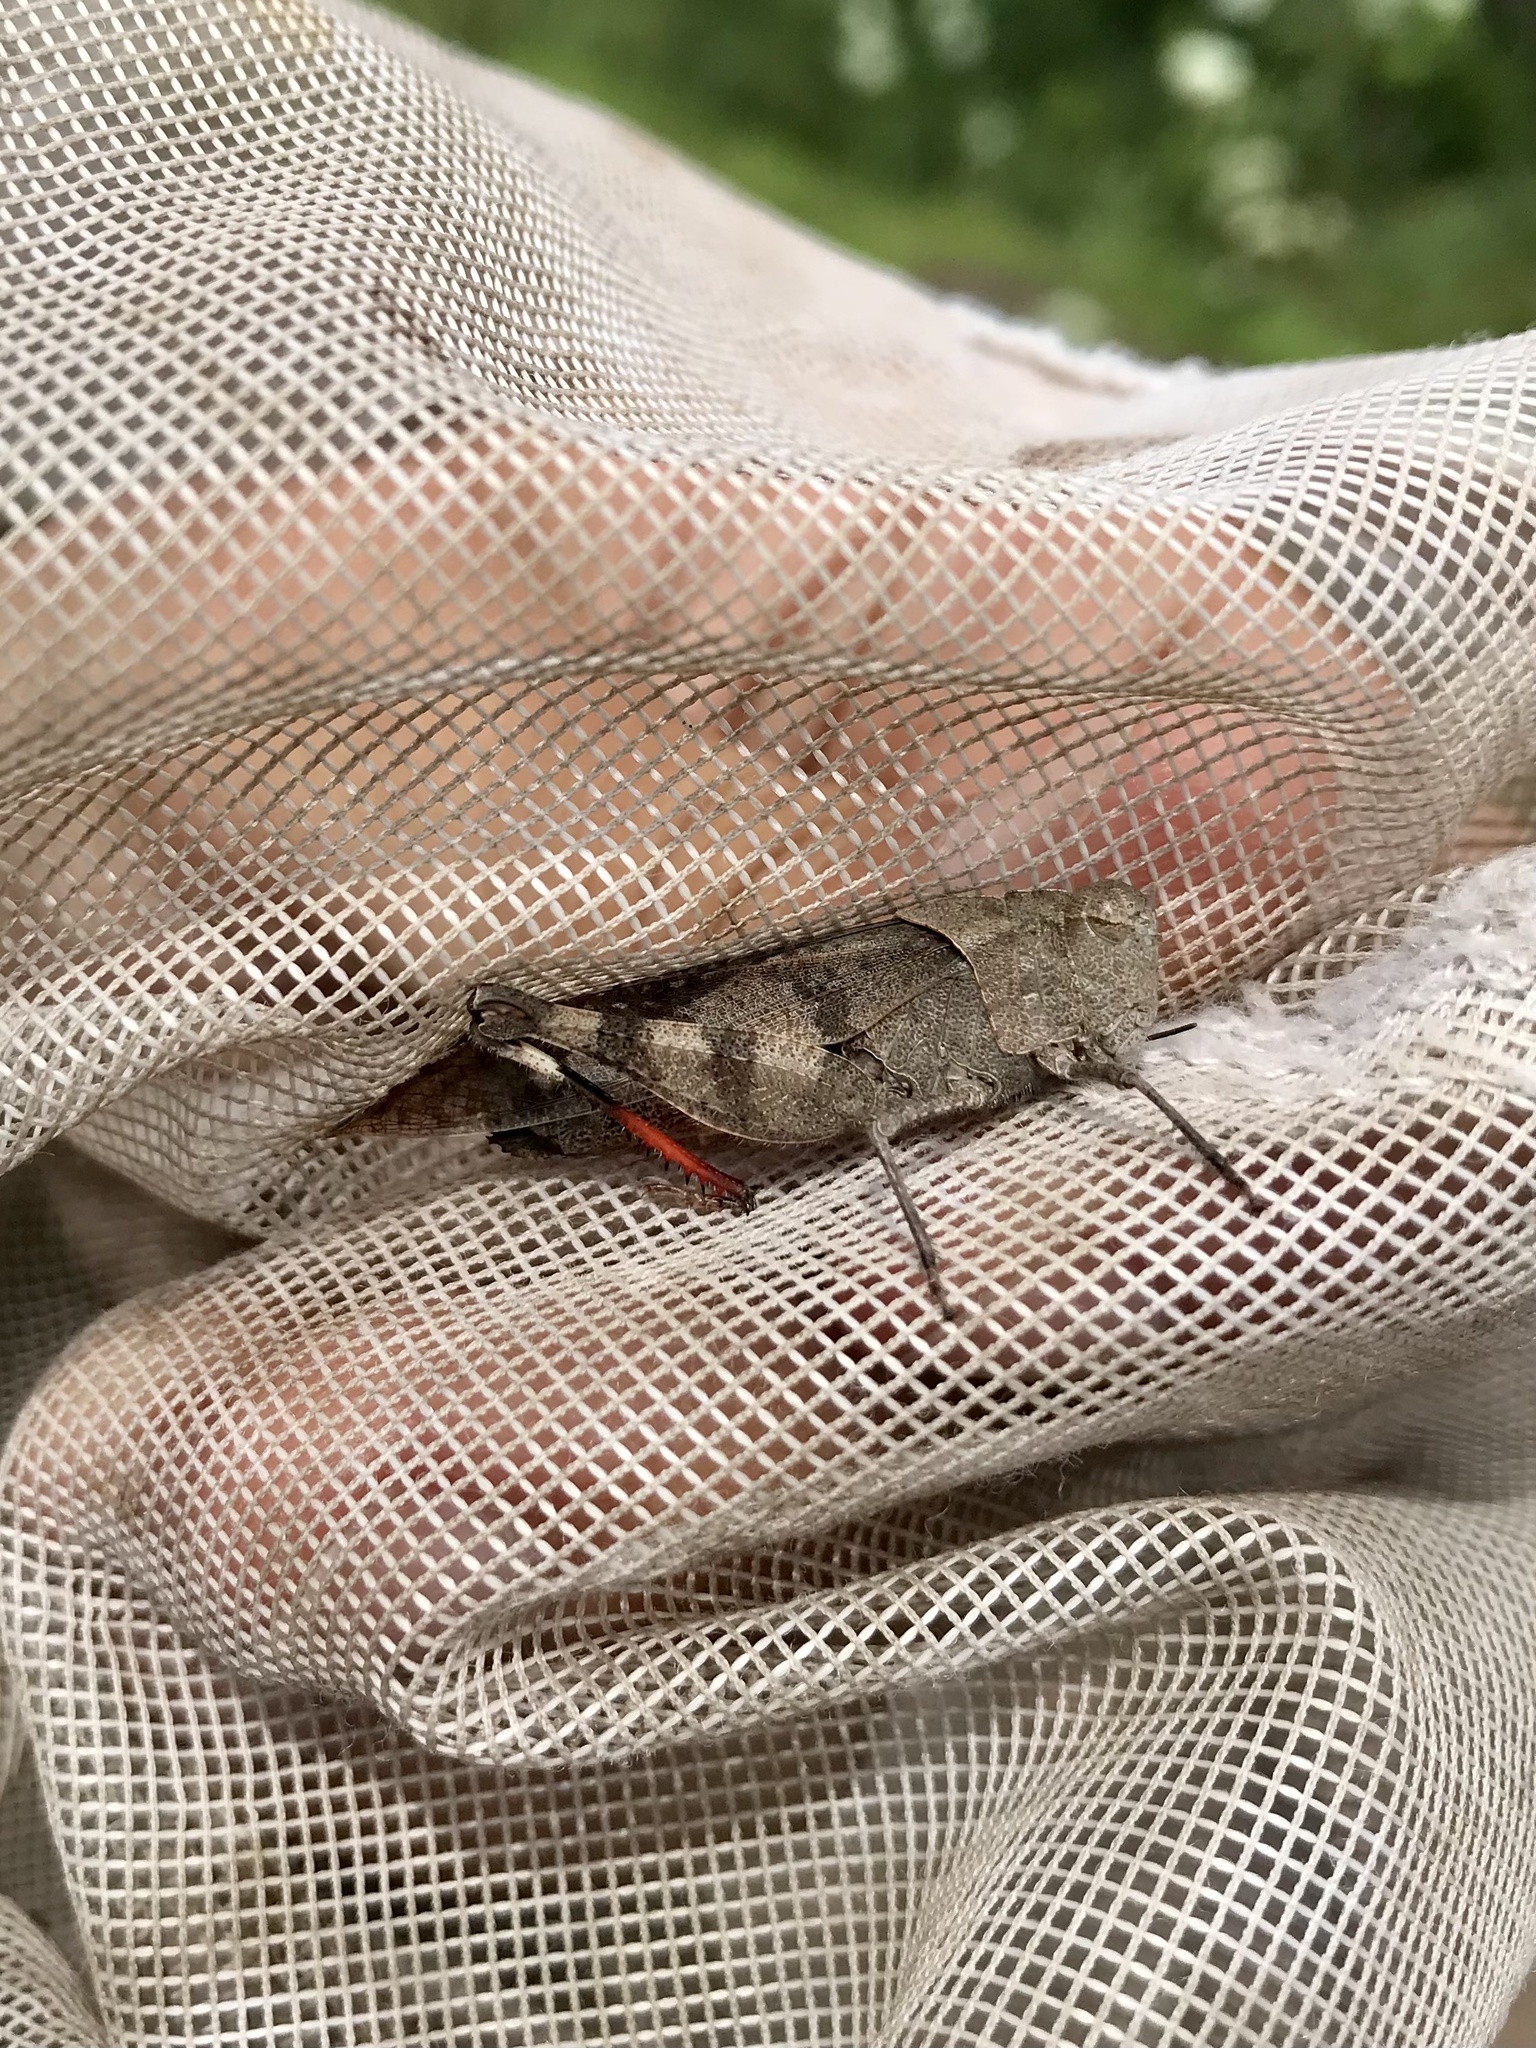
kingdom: Animalia
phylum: Arthropoda
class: Insecta
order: Orthoptera
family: Acrididae
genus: Spharagemon
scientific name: Spharagemon bolli
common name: Boll's grasshopper
